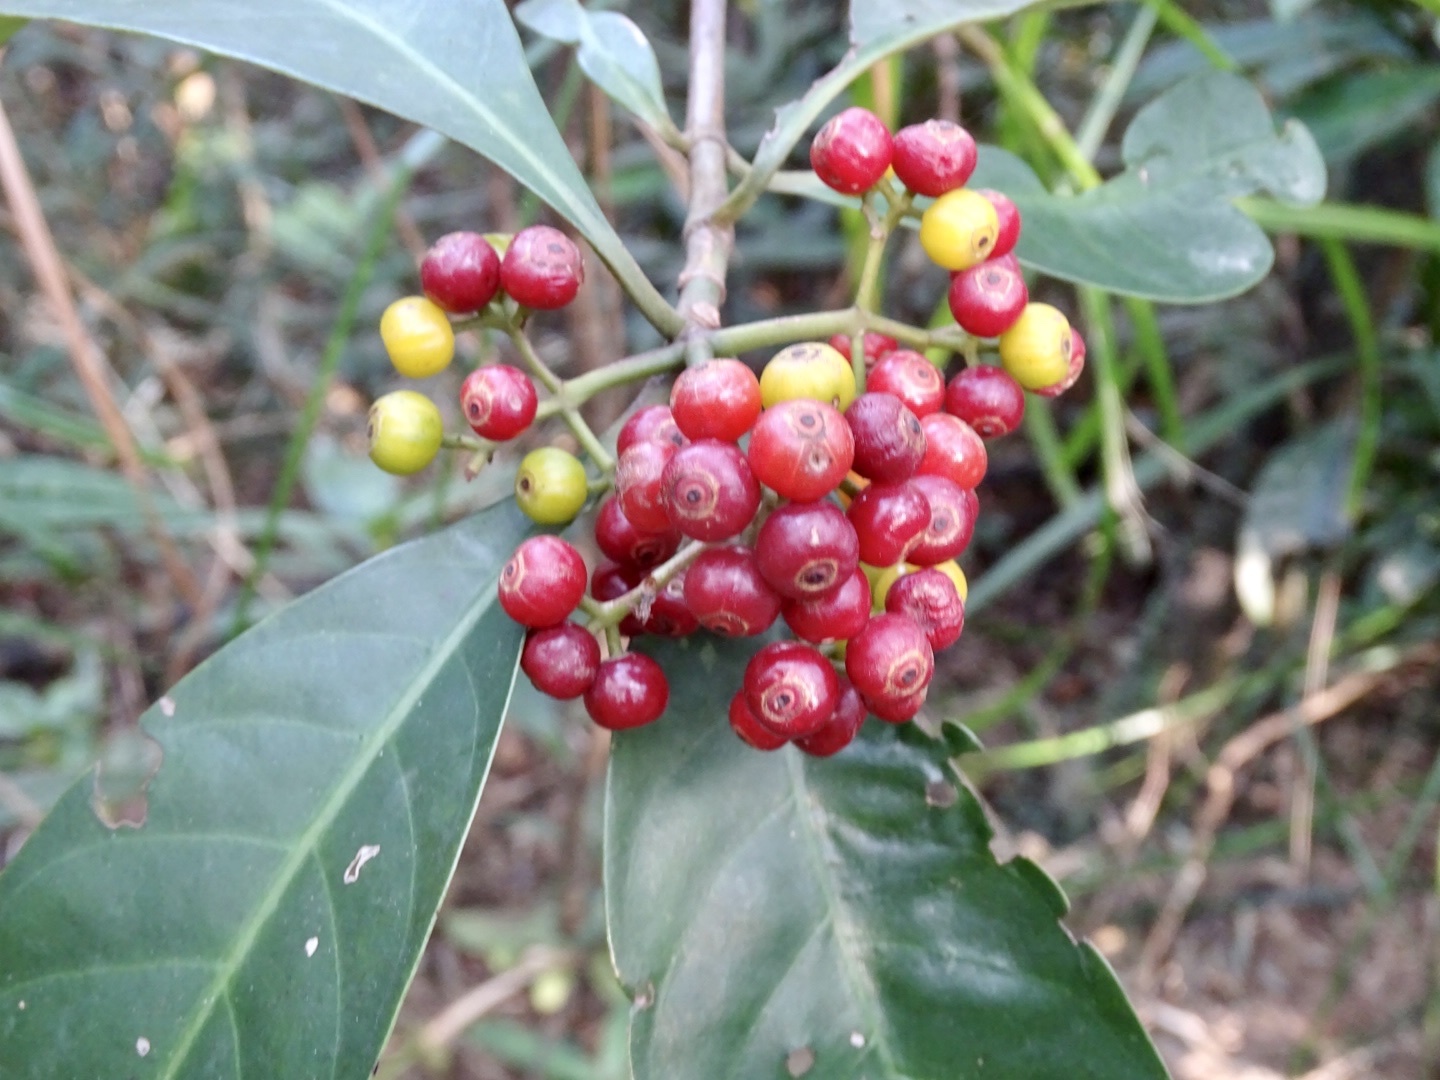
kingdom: Plantae
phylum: Tracheophyta
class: Magnoliopsida
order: Gentianales
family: Rubiaceae
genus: Psychotria
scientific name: Psychotria asiatica
